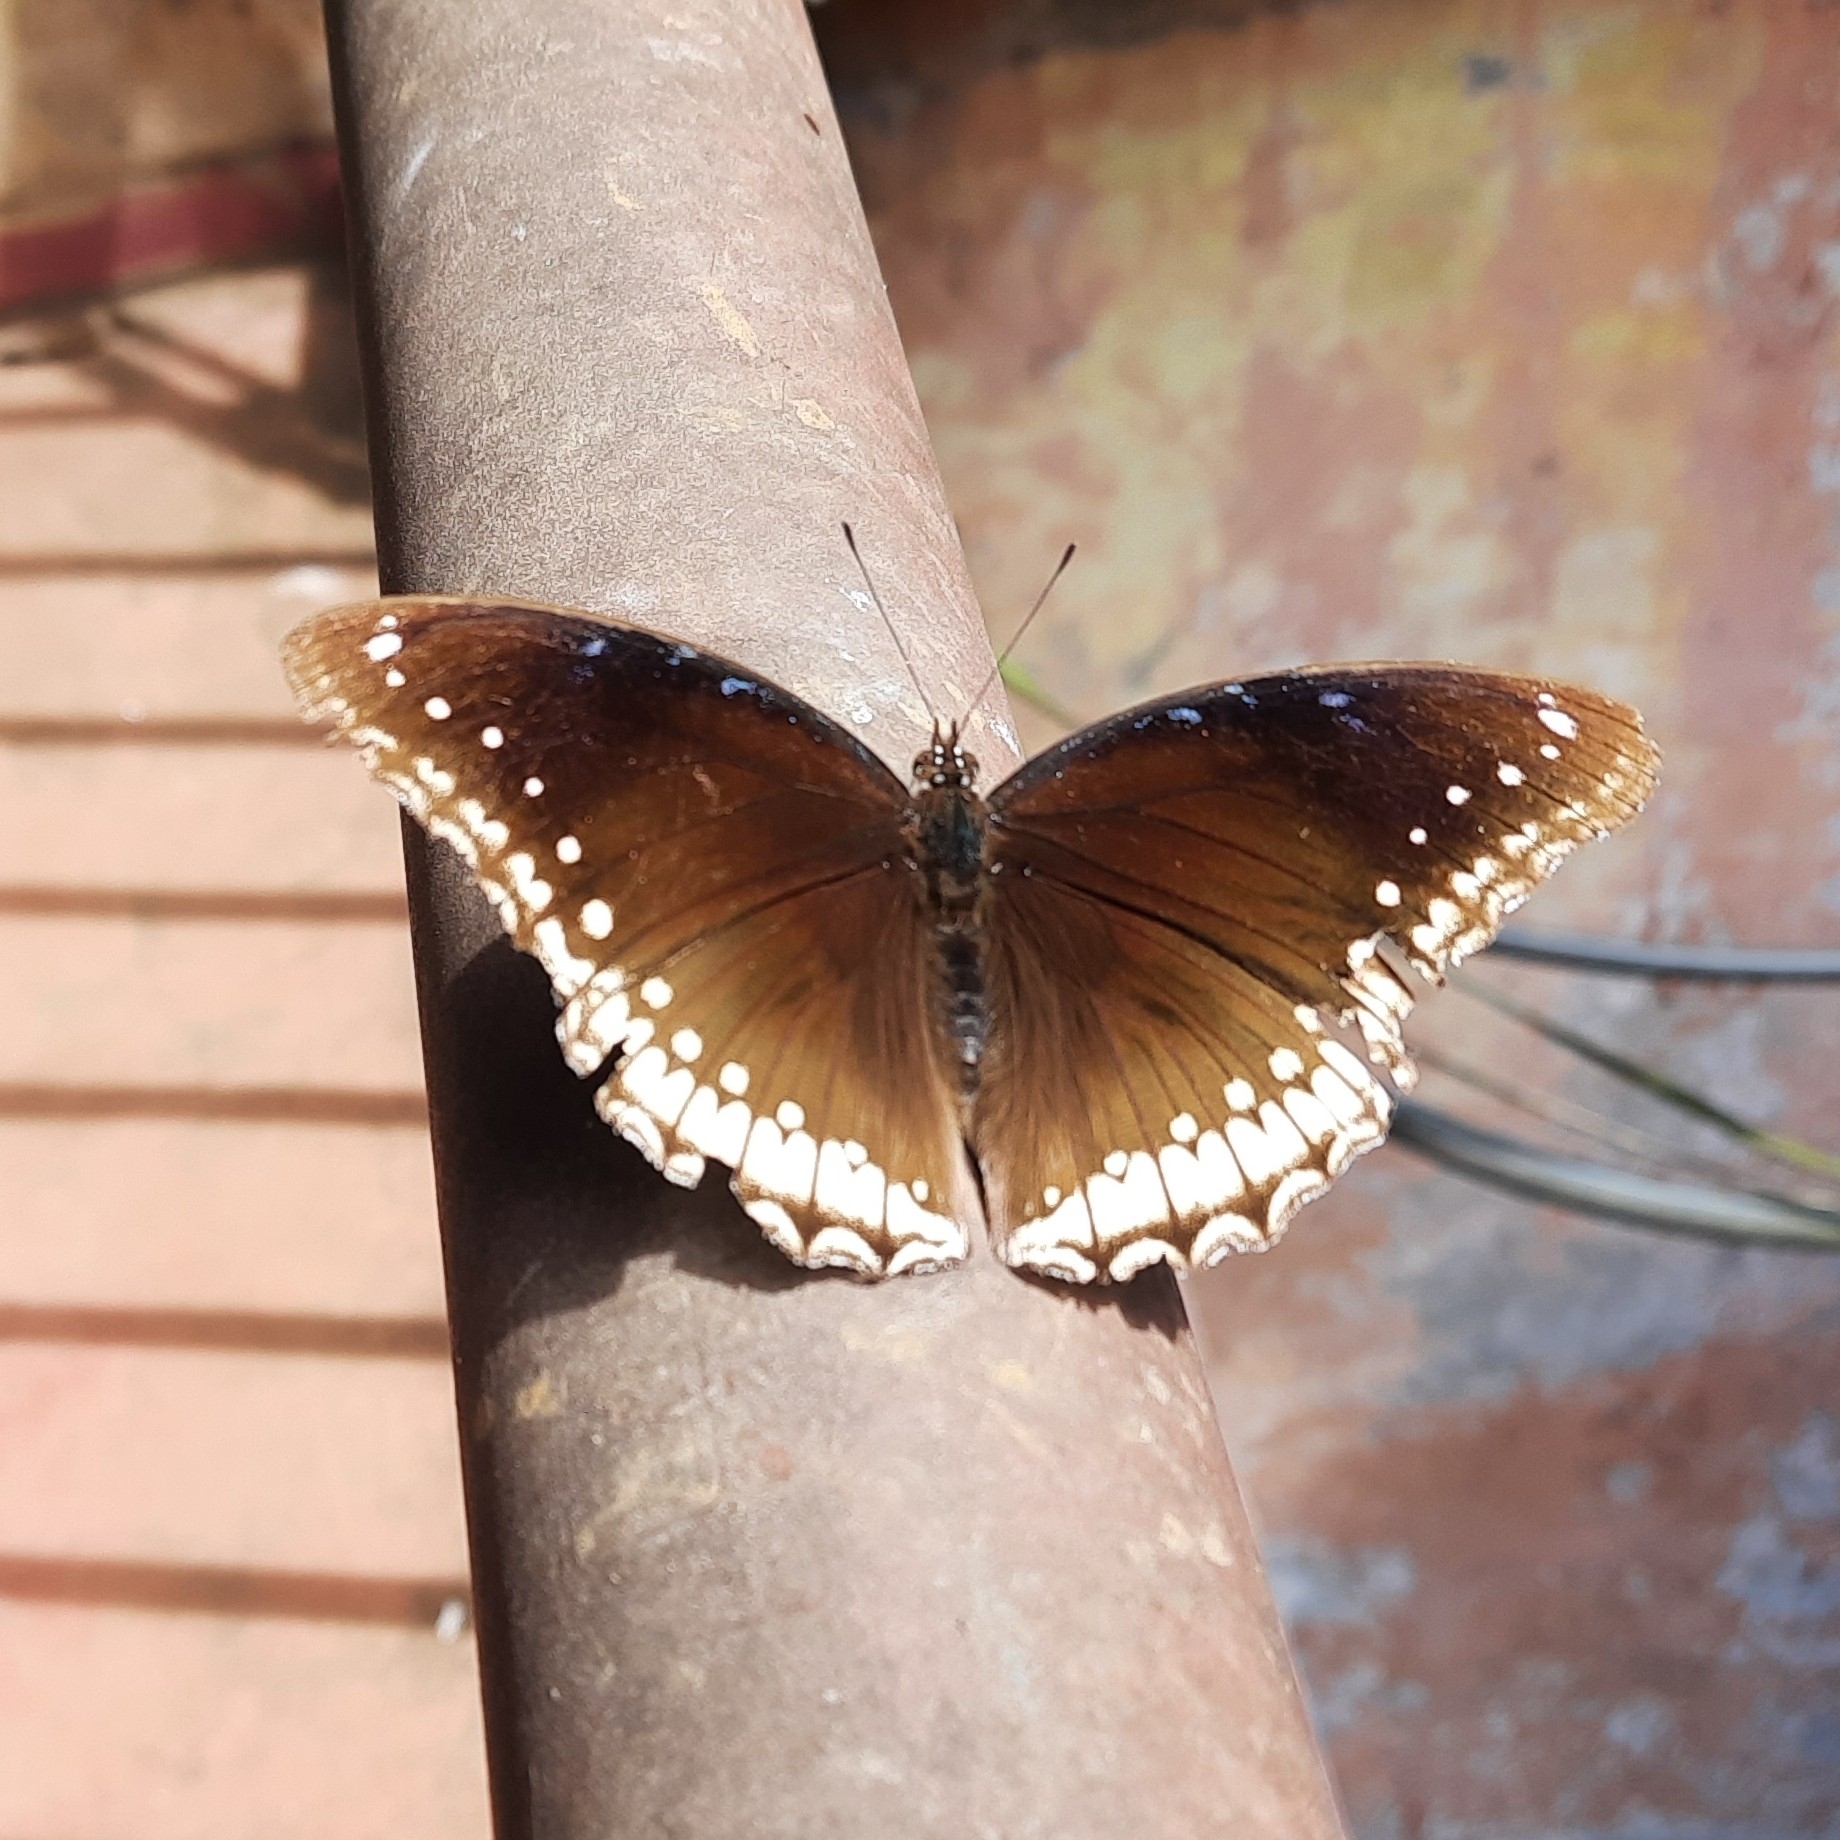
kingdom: Animalia
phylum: Arthropoda
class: Insecta
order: Lepidoptera
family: Nymphalidae
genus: Hypolimnas
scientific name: Hypolimnas bolina
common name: Great eggfly
